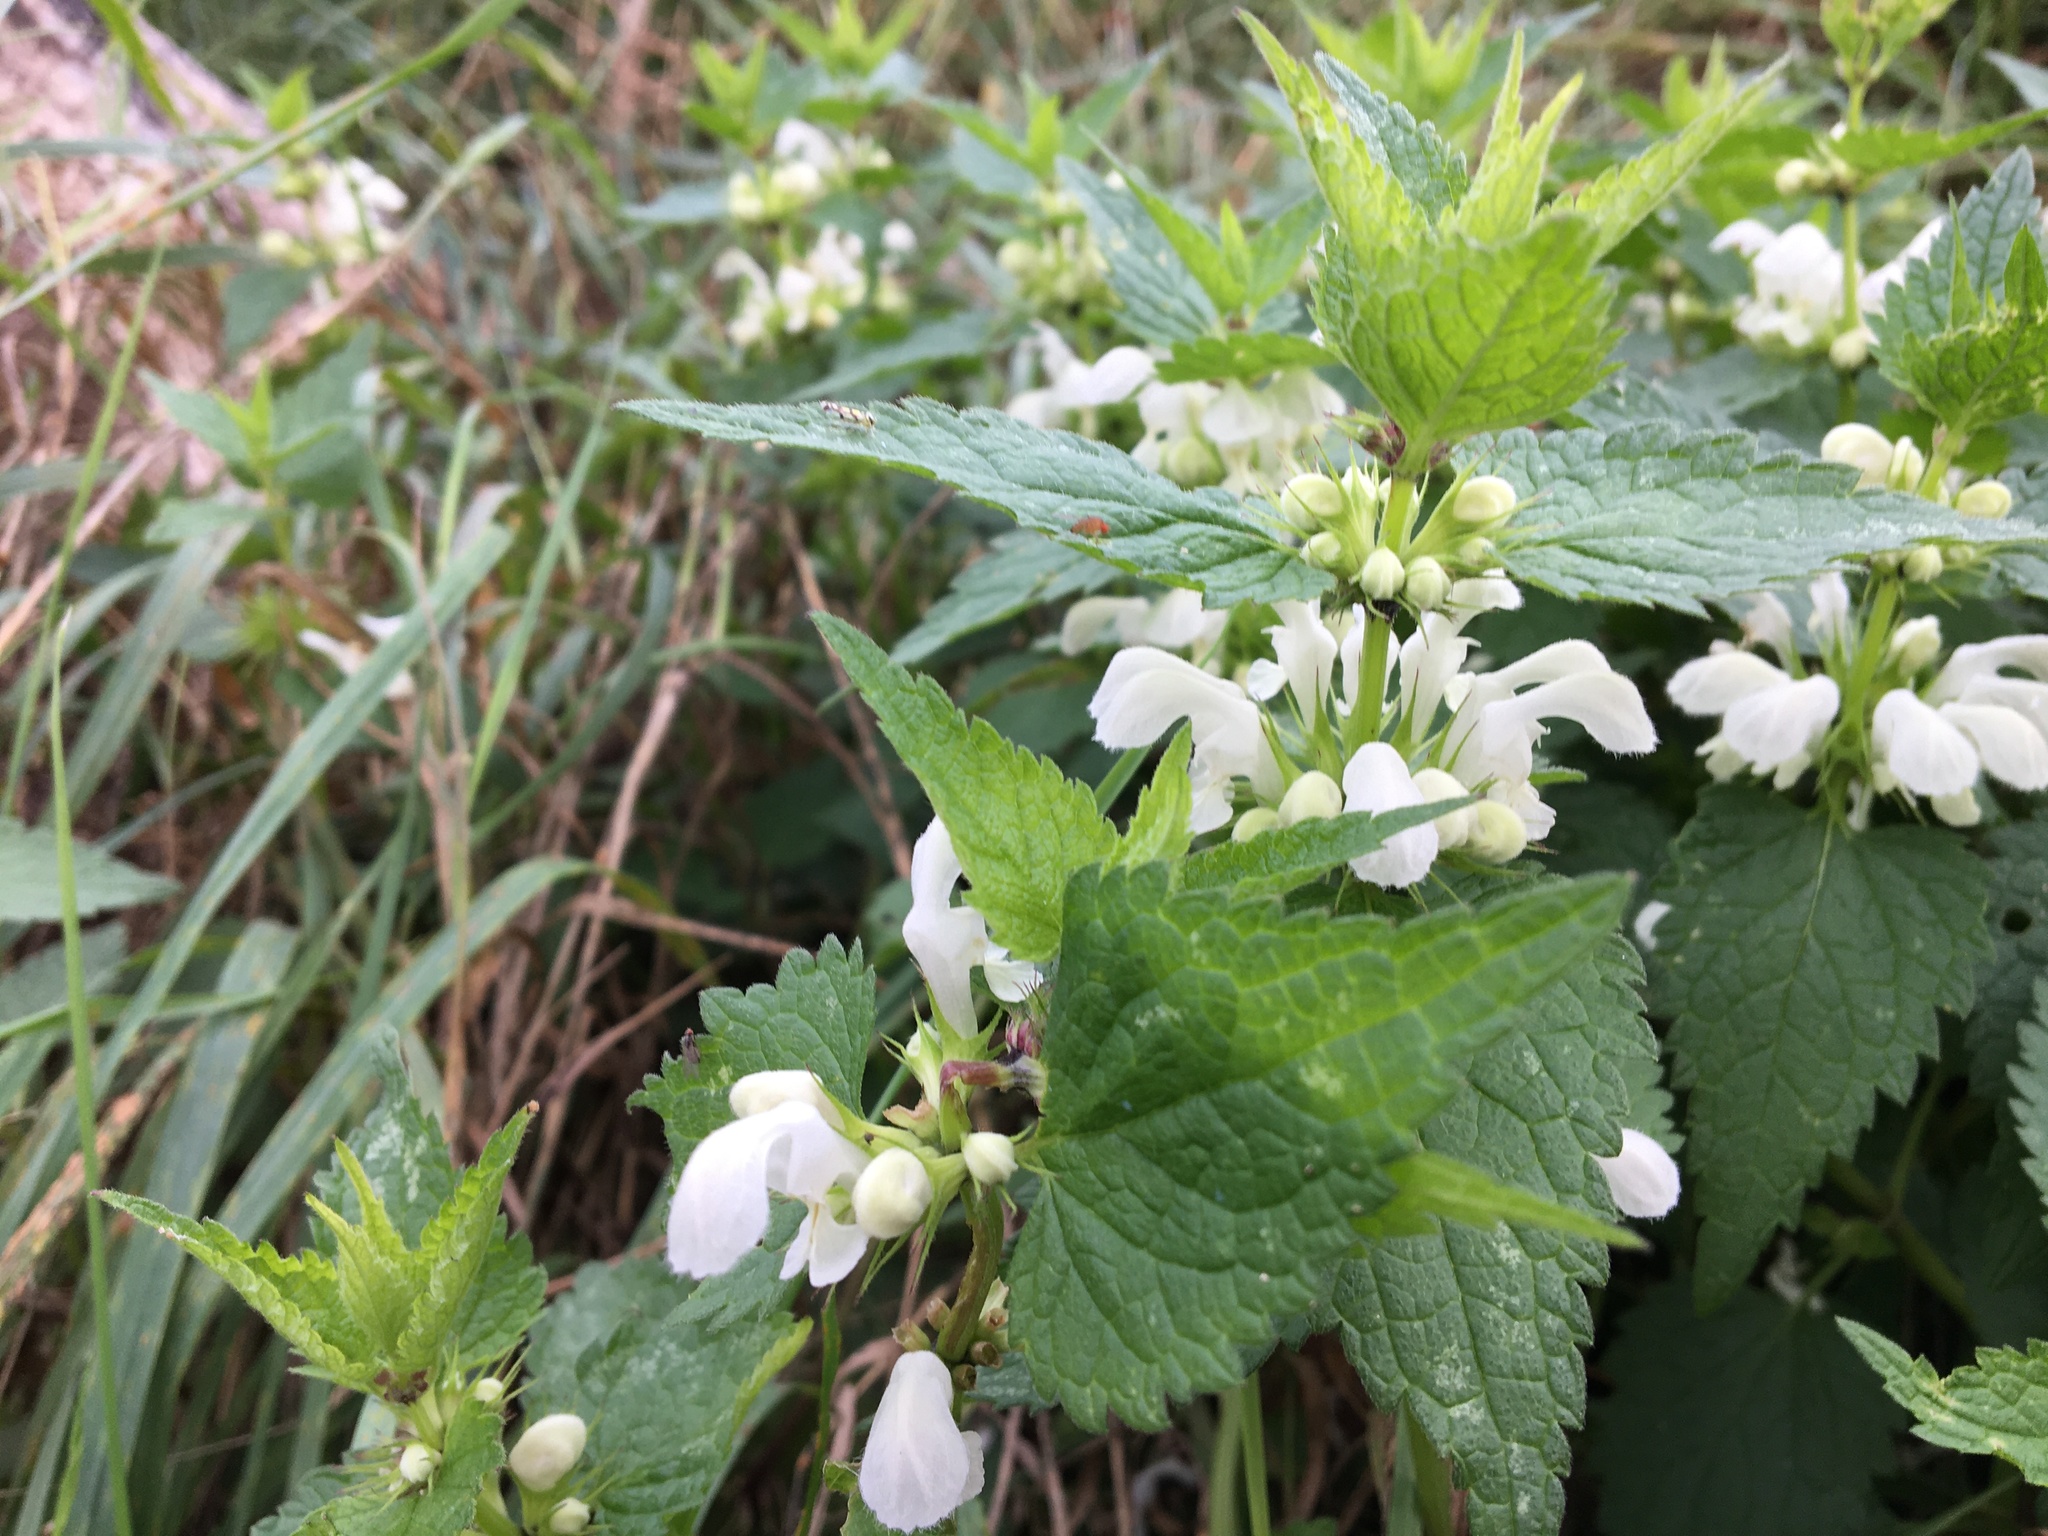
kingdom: Plantae
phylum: Tracheophyta
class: Magnoliopsida
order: Lamiales
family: Lamiaceae
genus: Lamium
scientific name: Lamium album
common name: White dead-nettle
